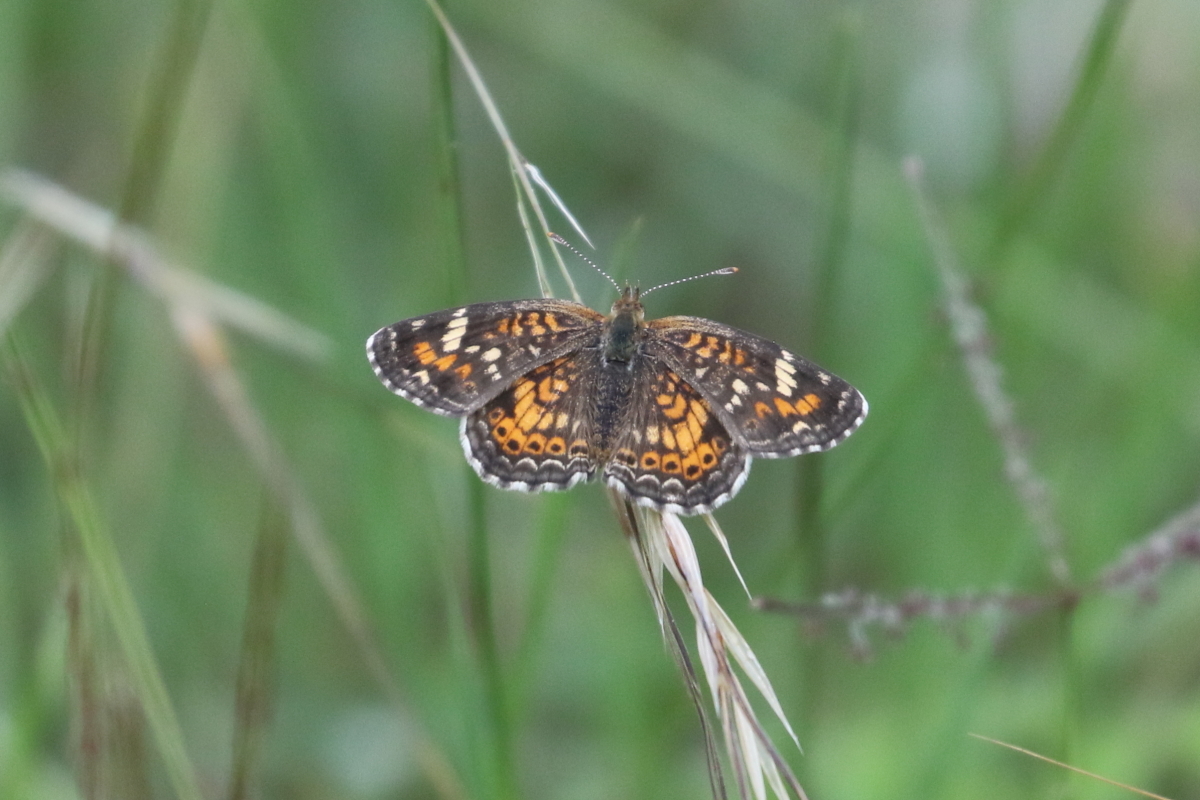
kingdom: Animalia
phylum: Arthropoda
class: Insecta
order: Lepidoptera
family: Nymphalidae
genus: Phyciodes
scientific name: Phyciodes phaon
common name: Phaon crescent
